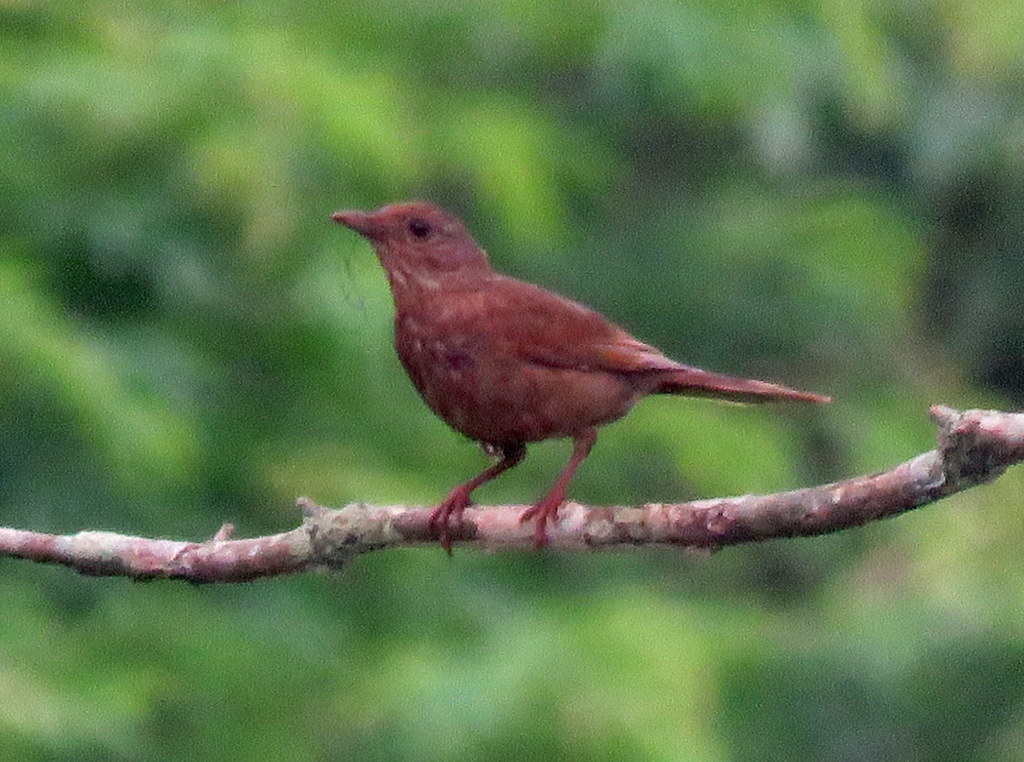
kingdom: Animalia
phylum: Chordata
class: Aves
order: Passeriformes
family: Turdidae
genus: Turdus
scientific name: Turdus leucomelas
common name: Pale-breasted thrush
